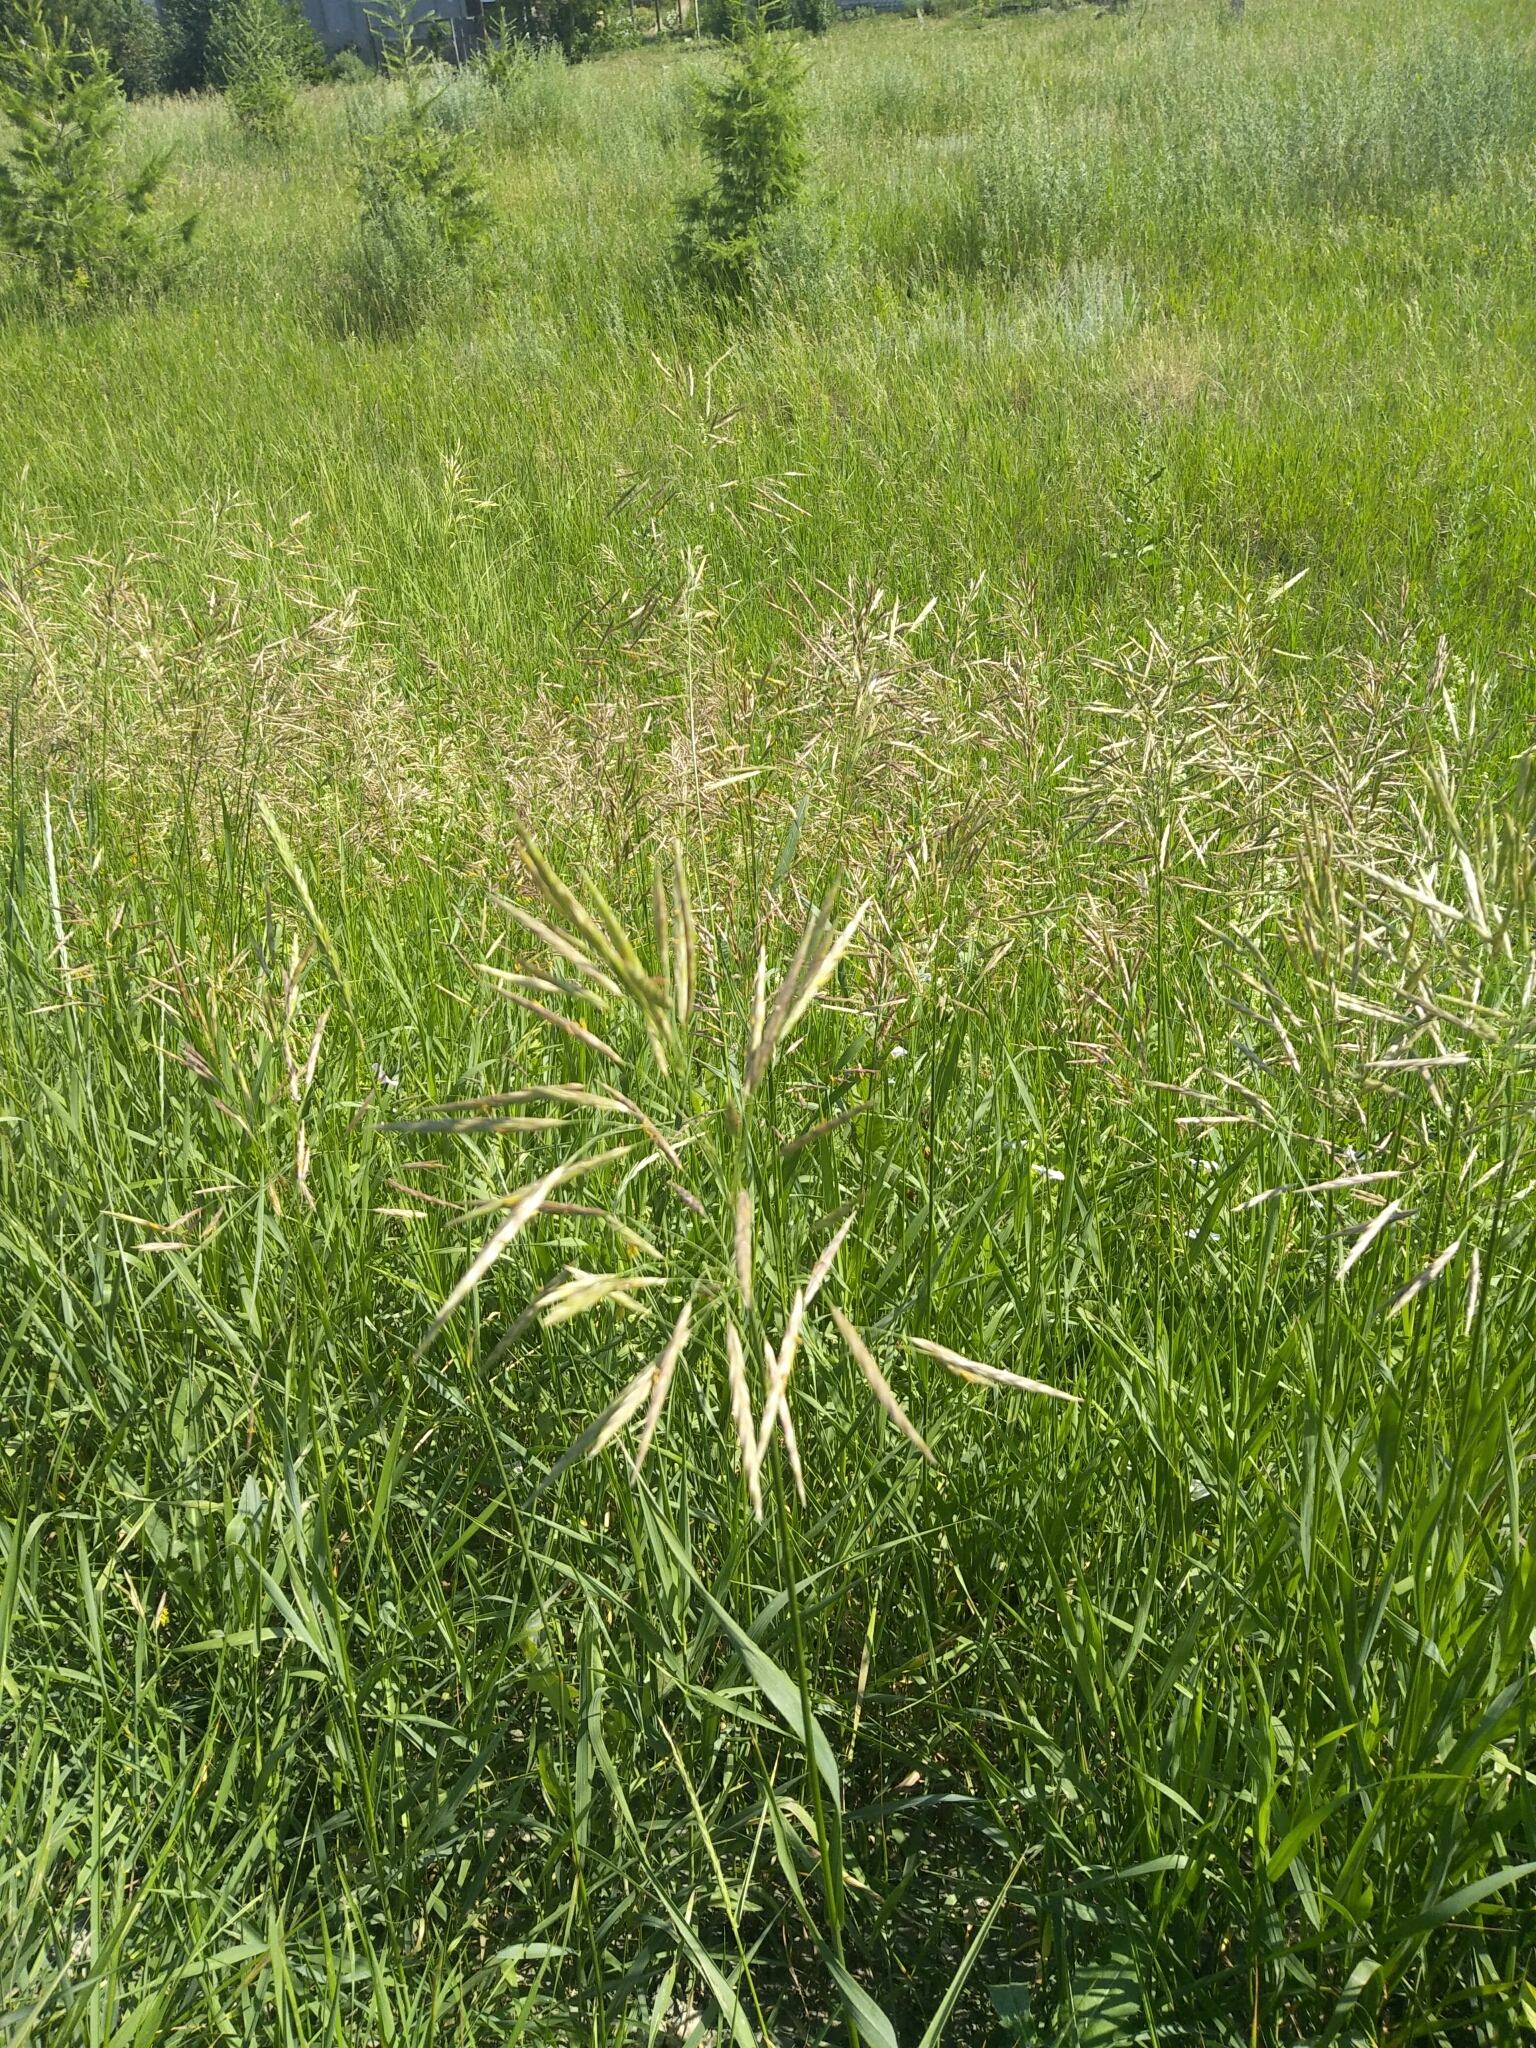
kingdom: Plantae
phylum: Tracheophyta
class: Liliopsida
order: Poales
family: Poaceae
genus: Bromus
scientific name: Bromus inermis
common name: Smooth brome
